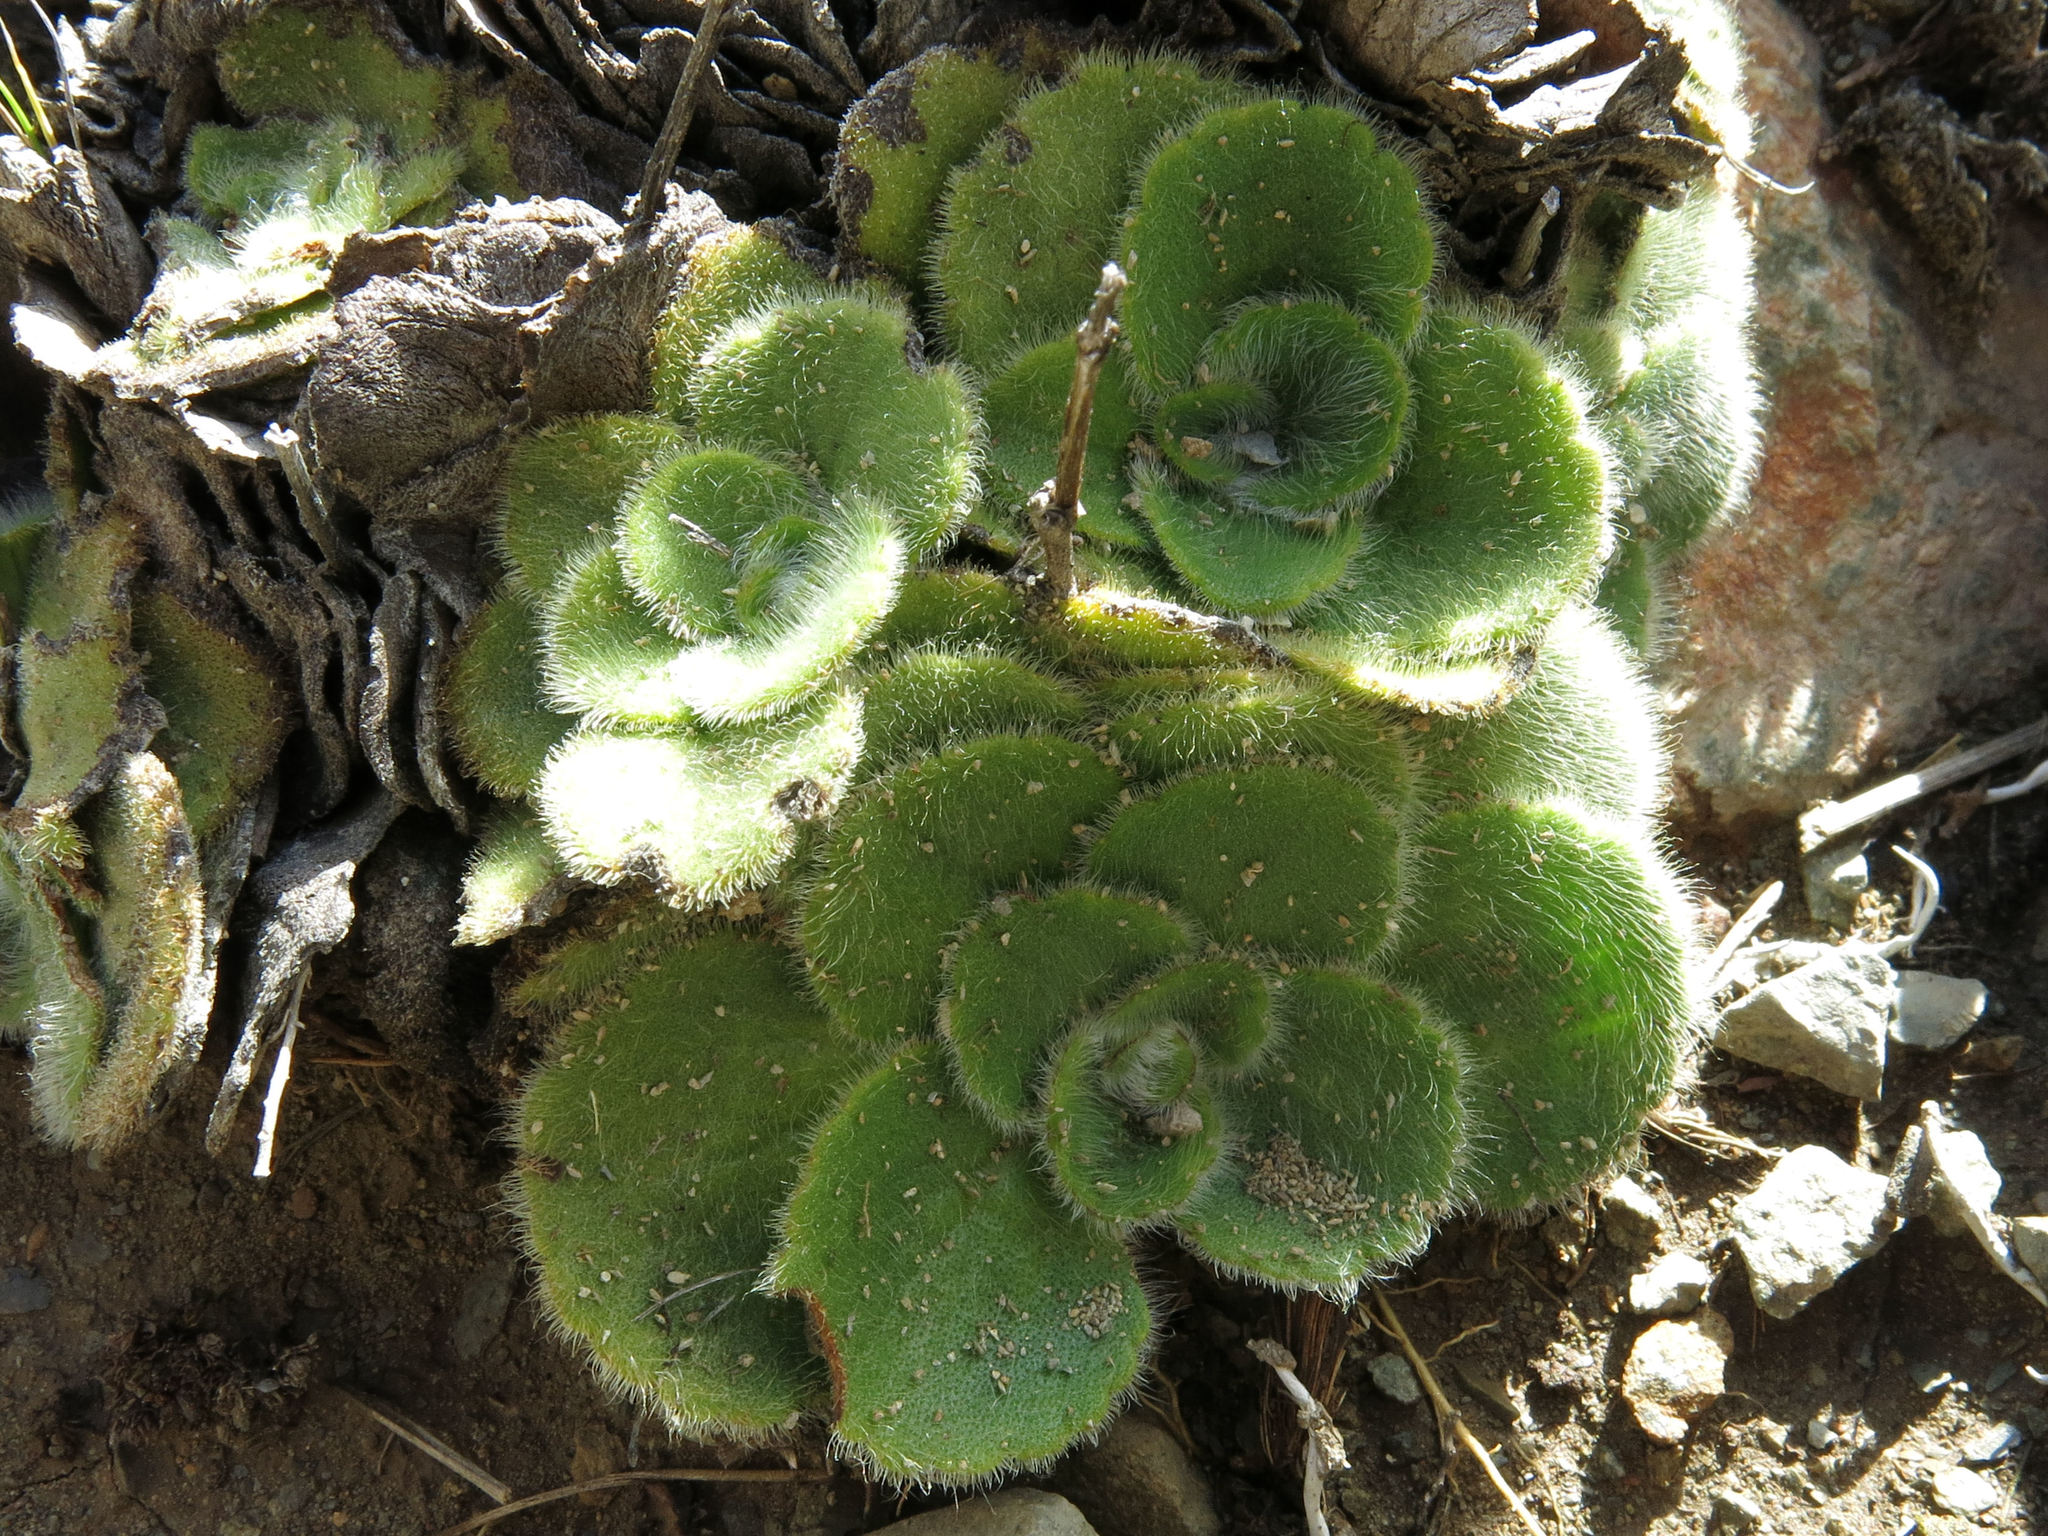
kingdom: Plantae
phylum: Tracheophyta
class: Magnoliopsida
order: Lamiales
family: Plantaginaceae
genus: Ourisia
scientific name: Ourisia spathulata
